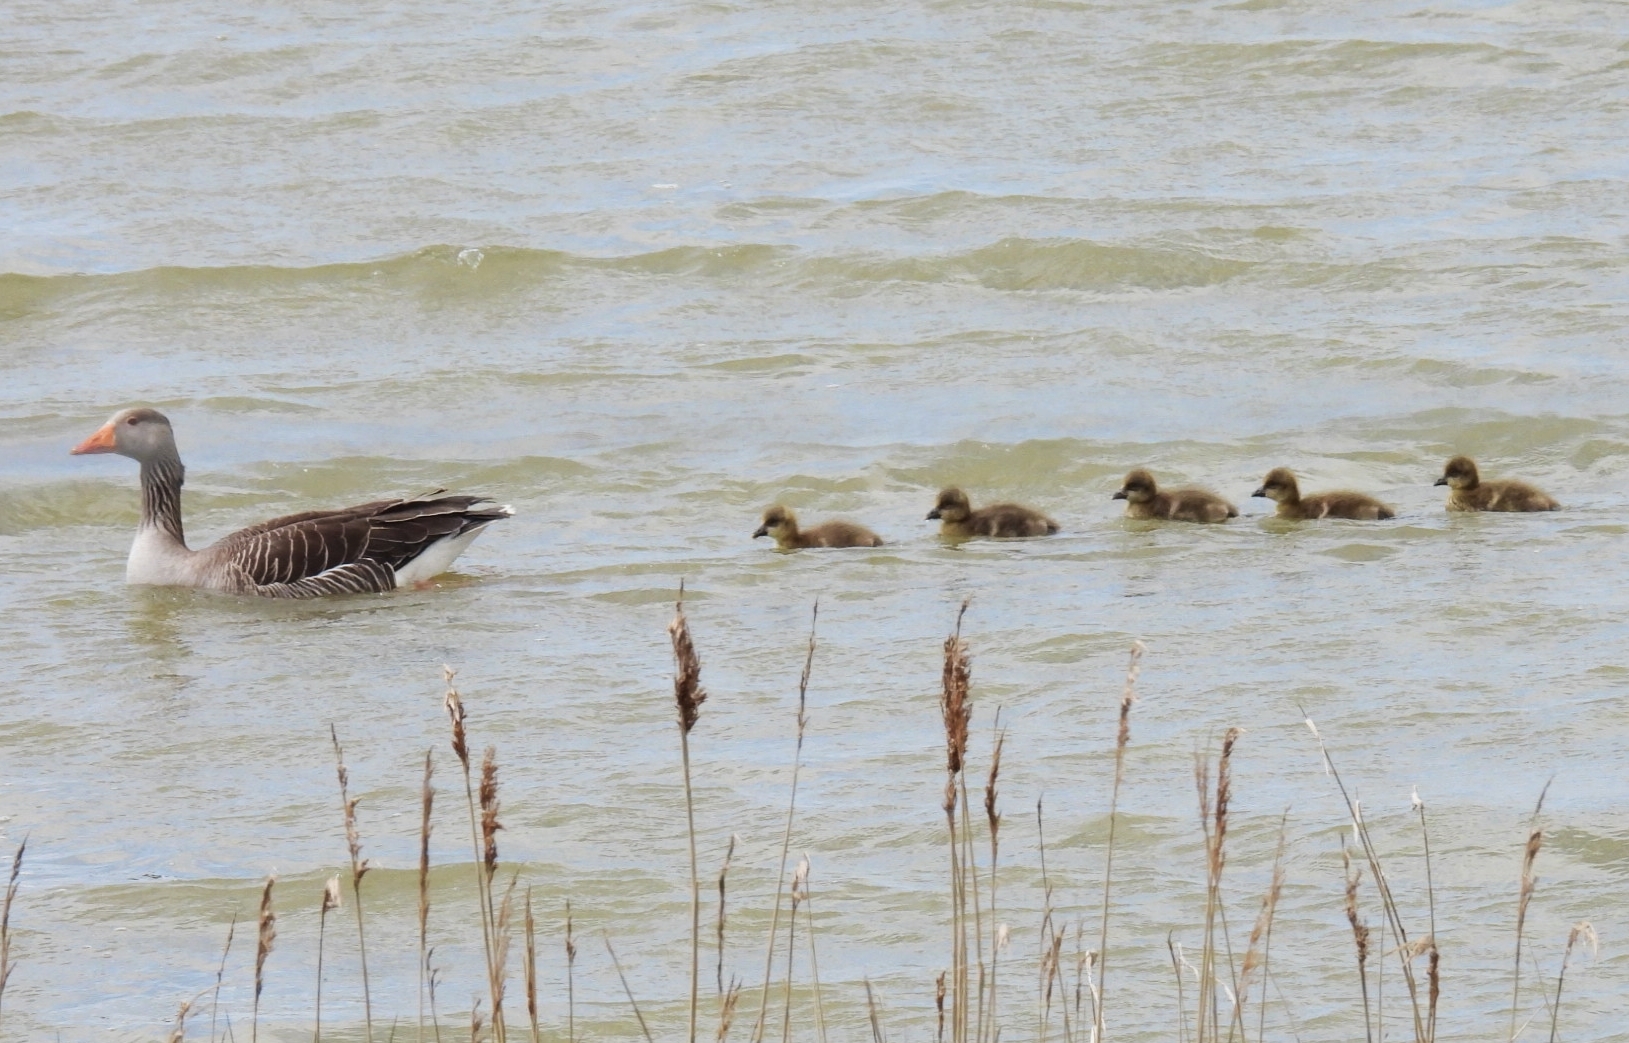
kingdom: Animalia
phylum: Chordata
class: Aves
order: Anseriformes
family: Anatidae
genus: Anser
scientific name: Anser anser
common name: Greylag goose
